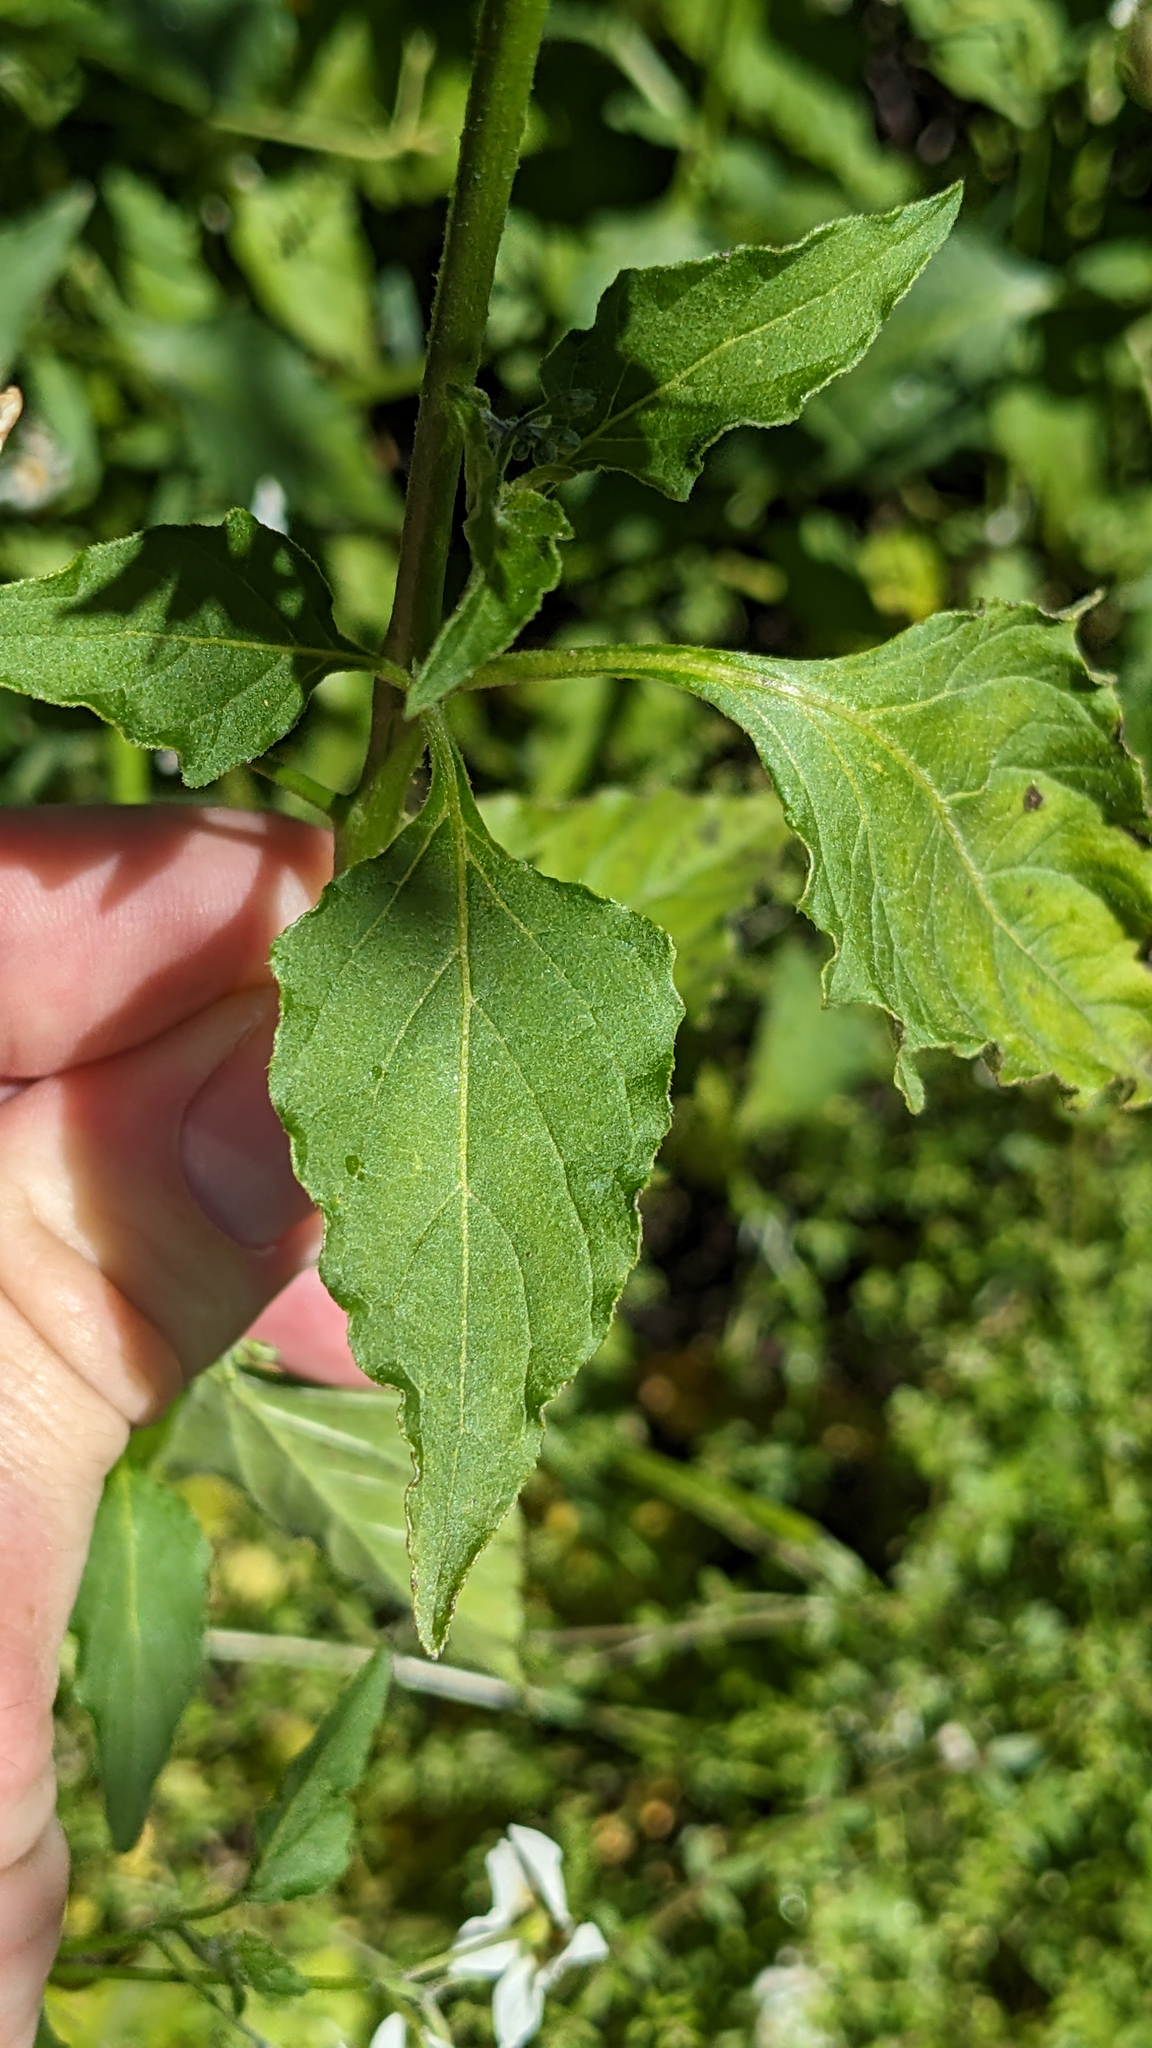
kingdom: Plantae
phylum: Tracheophyta
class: Magnoliopsida
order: Solanales
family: Solanaceae
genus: Solanum
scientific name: Solanum douglasii
